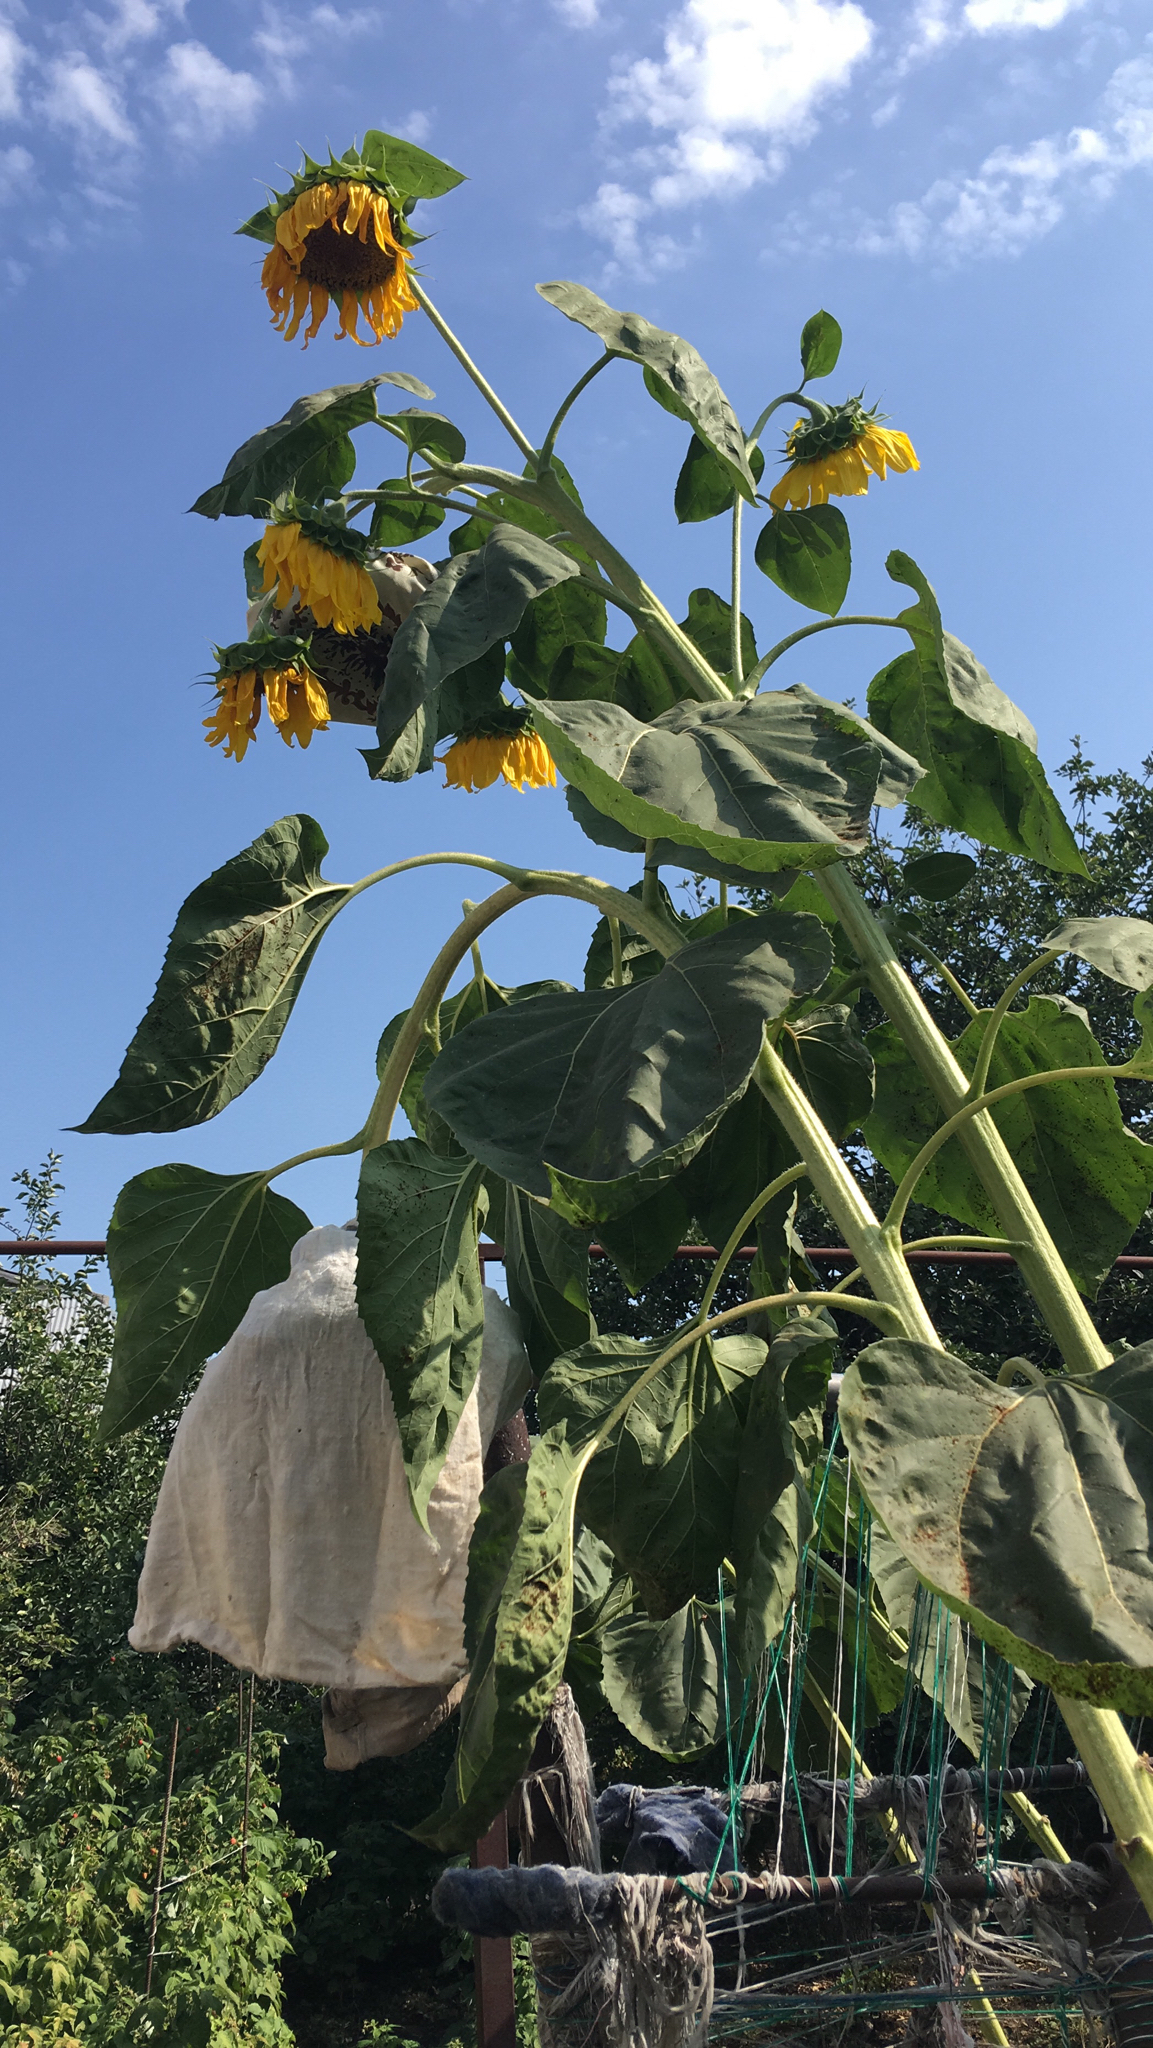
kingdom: Plantae
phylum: Tracheophyta
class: Magnoliopsida
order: Asterales
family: Asteraceae
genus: Helianthus
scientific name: Helianthus annuus
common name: Sunflower
